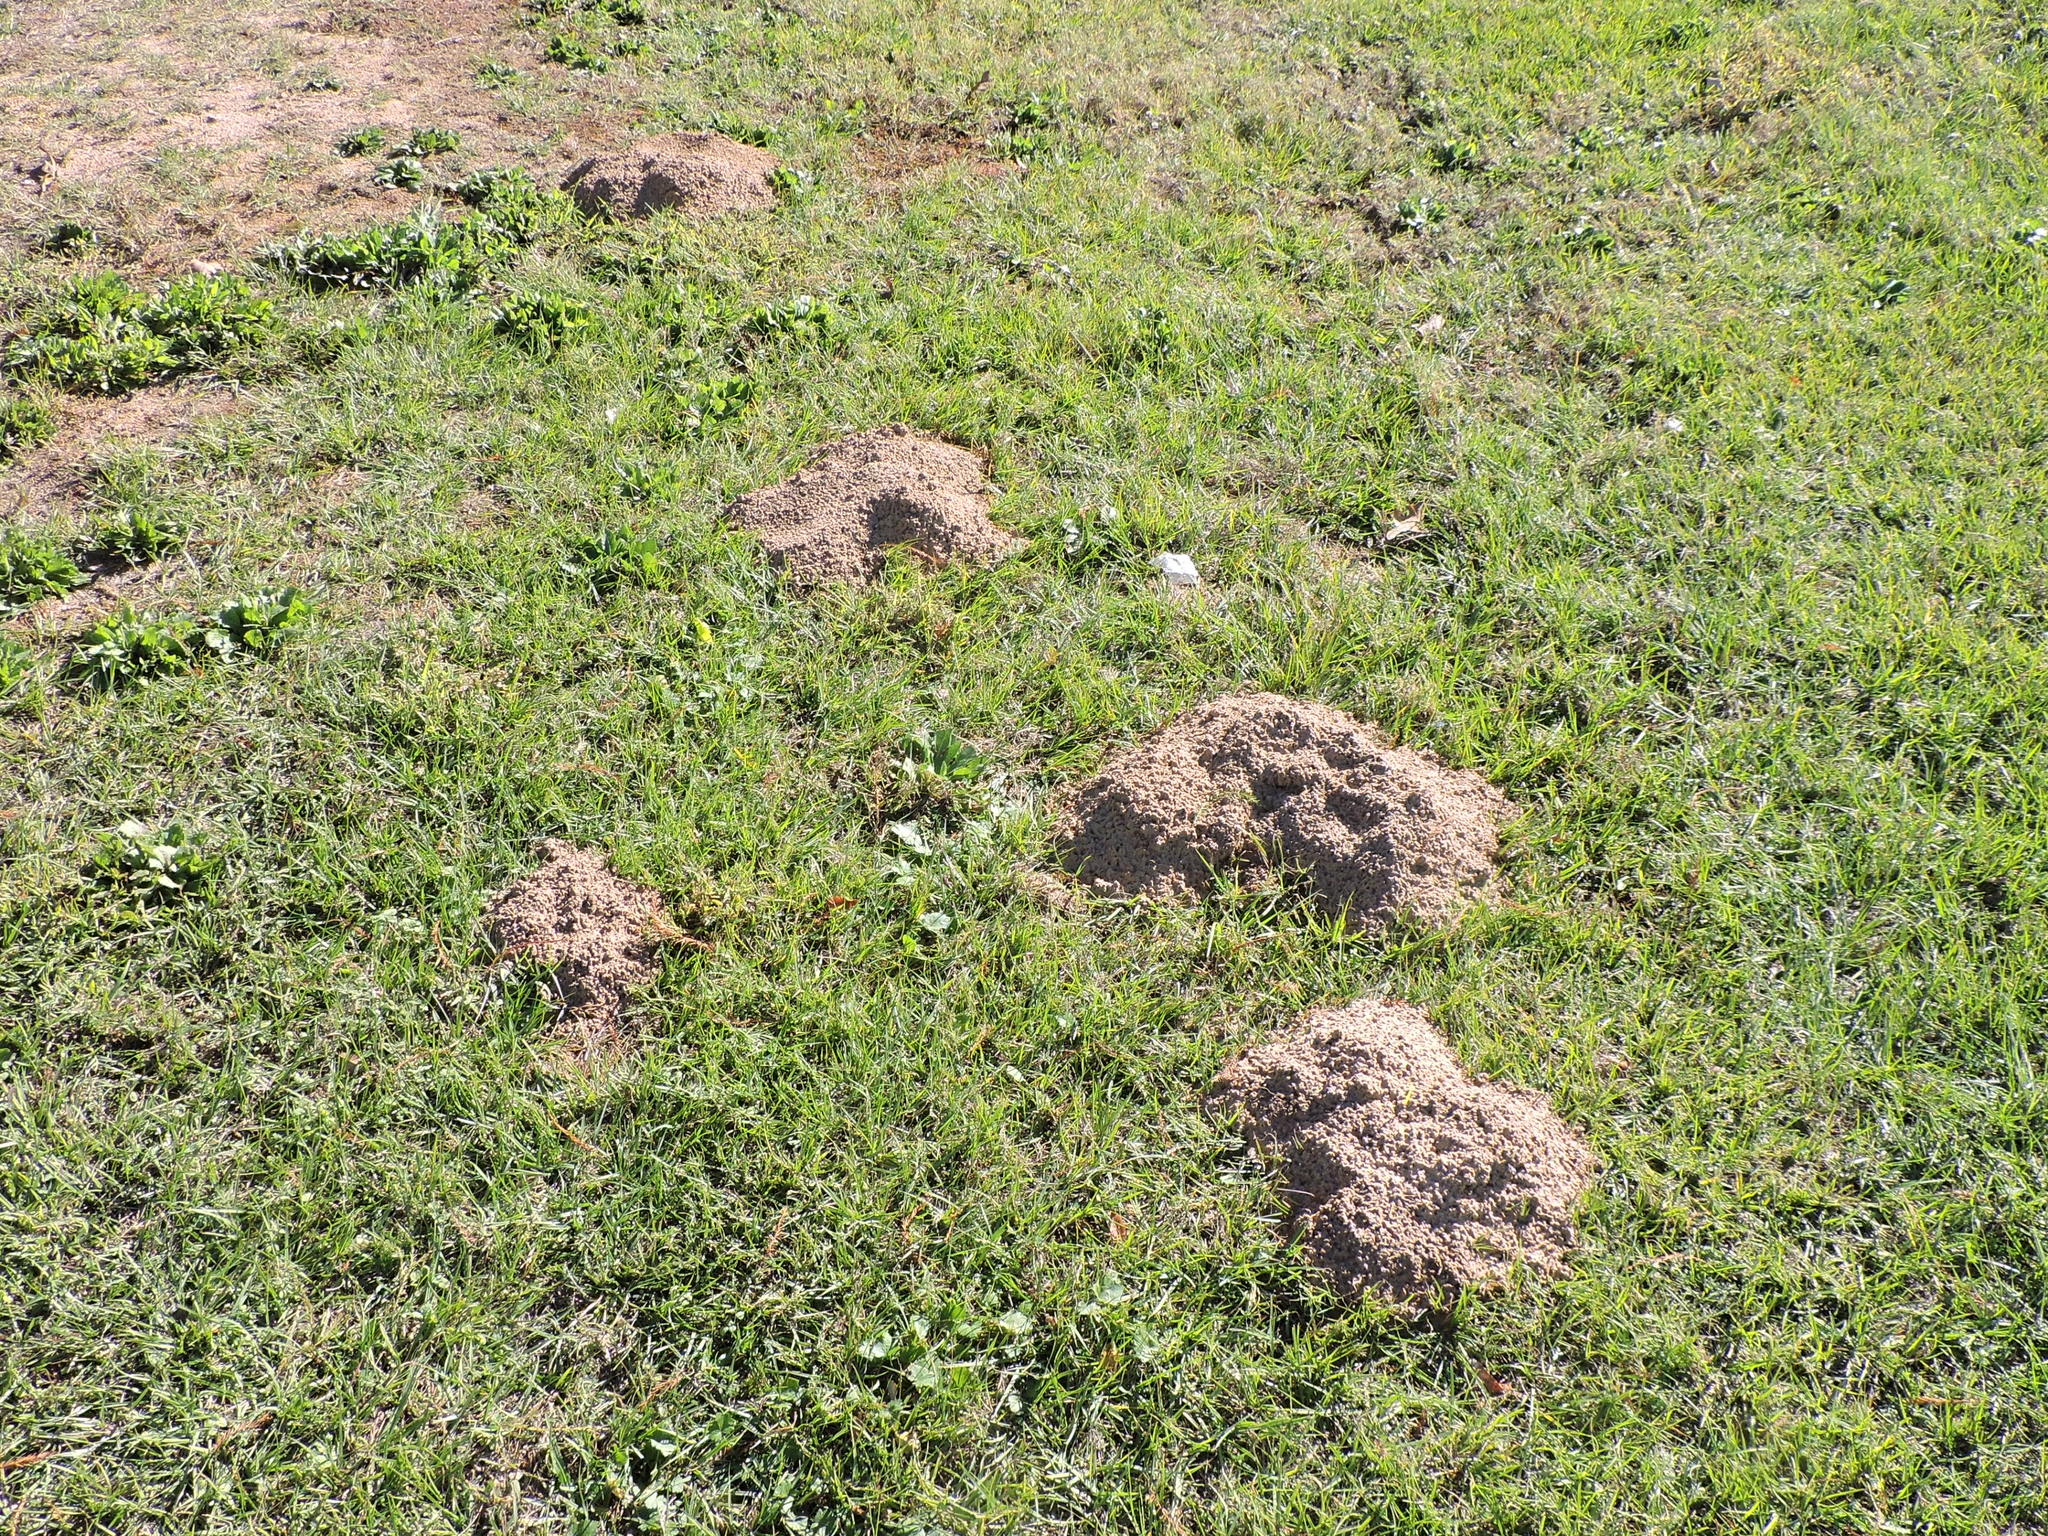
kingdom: Animalia
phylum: Chordata
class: Mammalia
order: Rodentia
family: Geomyidae
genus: Geomys
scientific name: Geomys breviceps
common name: Baird's pocket gopher
